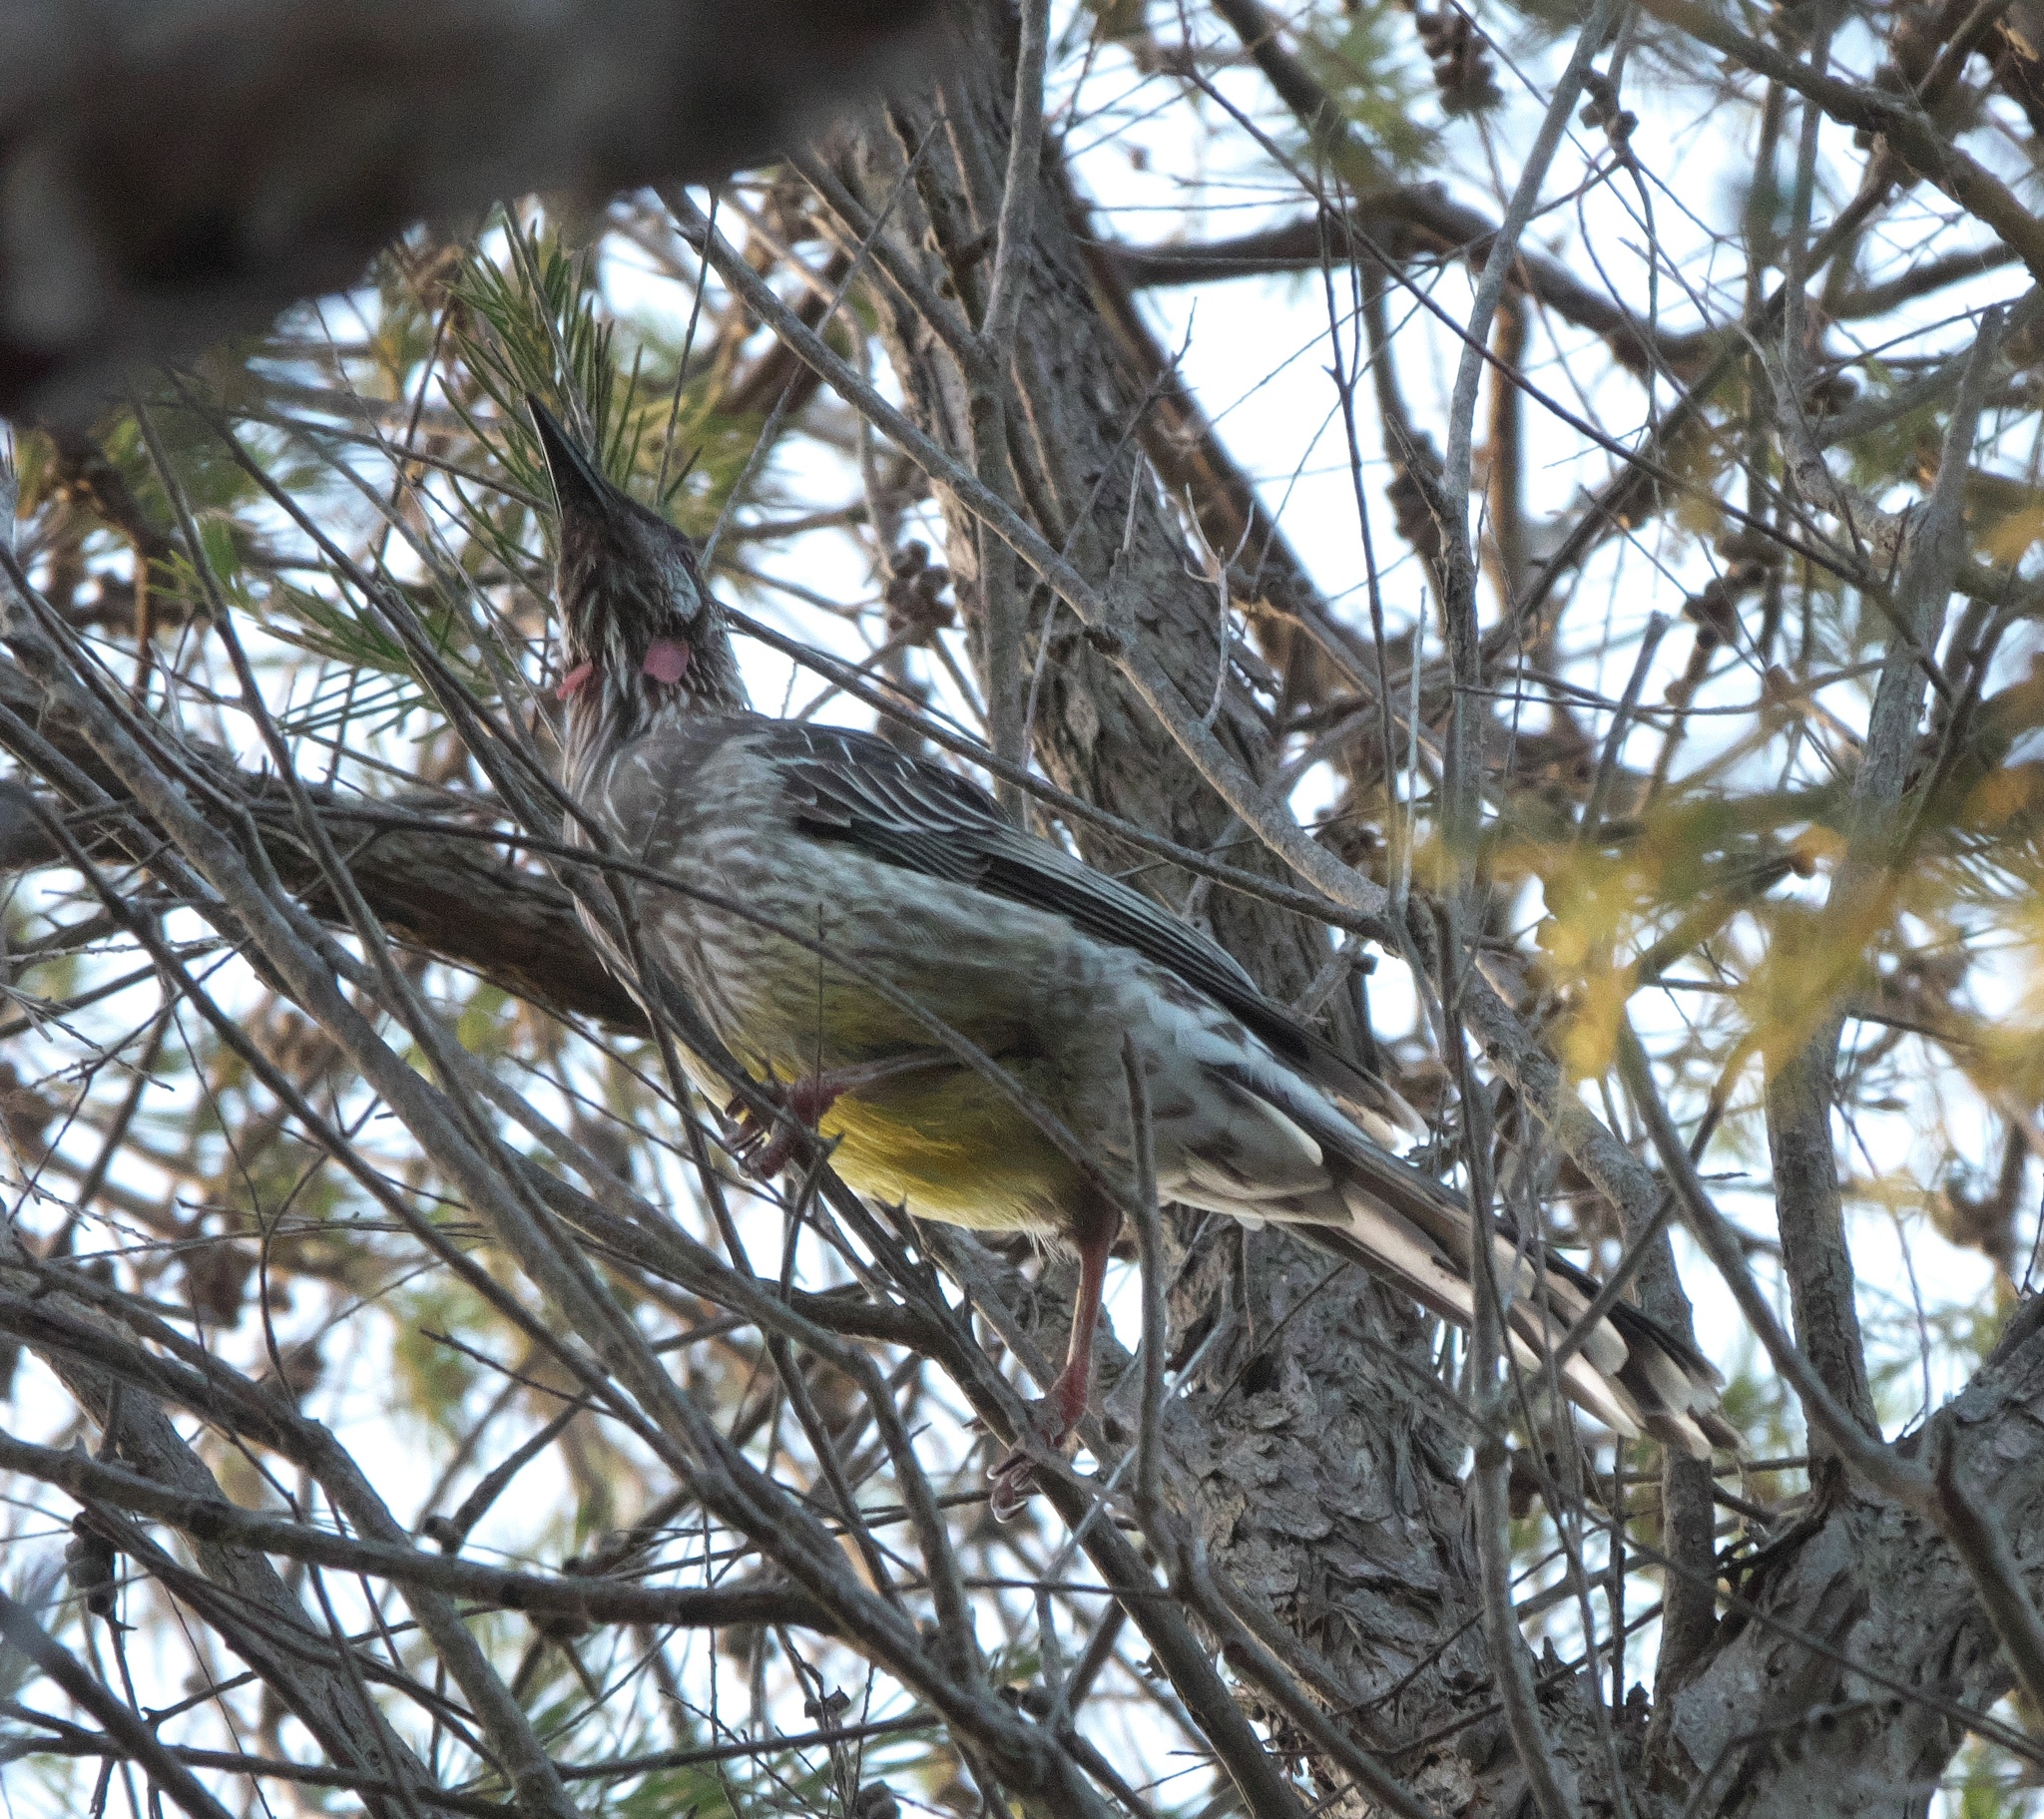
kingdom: Animalia
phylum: Chordata
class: Aves
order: Passeriformes
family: Meliphagidae
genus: Anthochaera
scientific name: Anthochaera carunculata
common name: Red wattlebird
